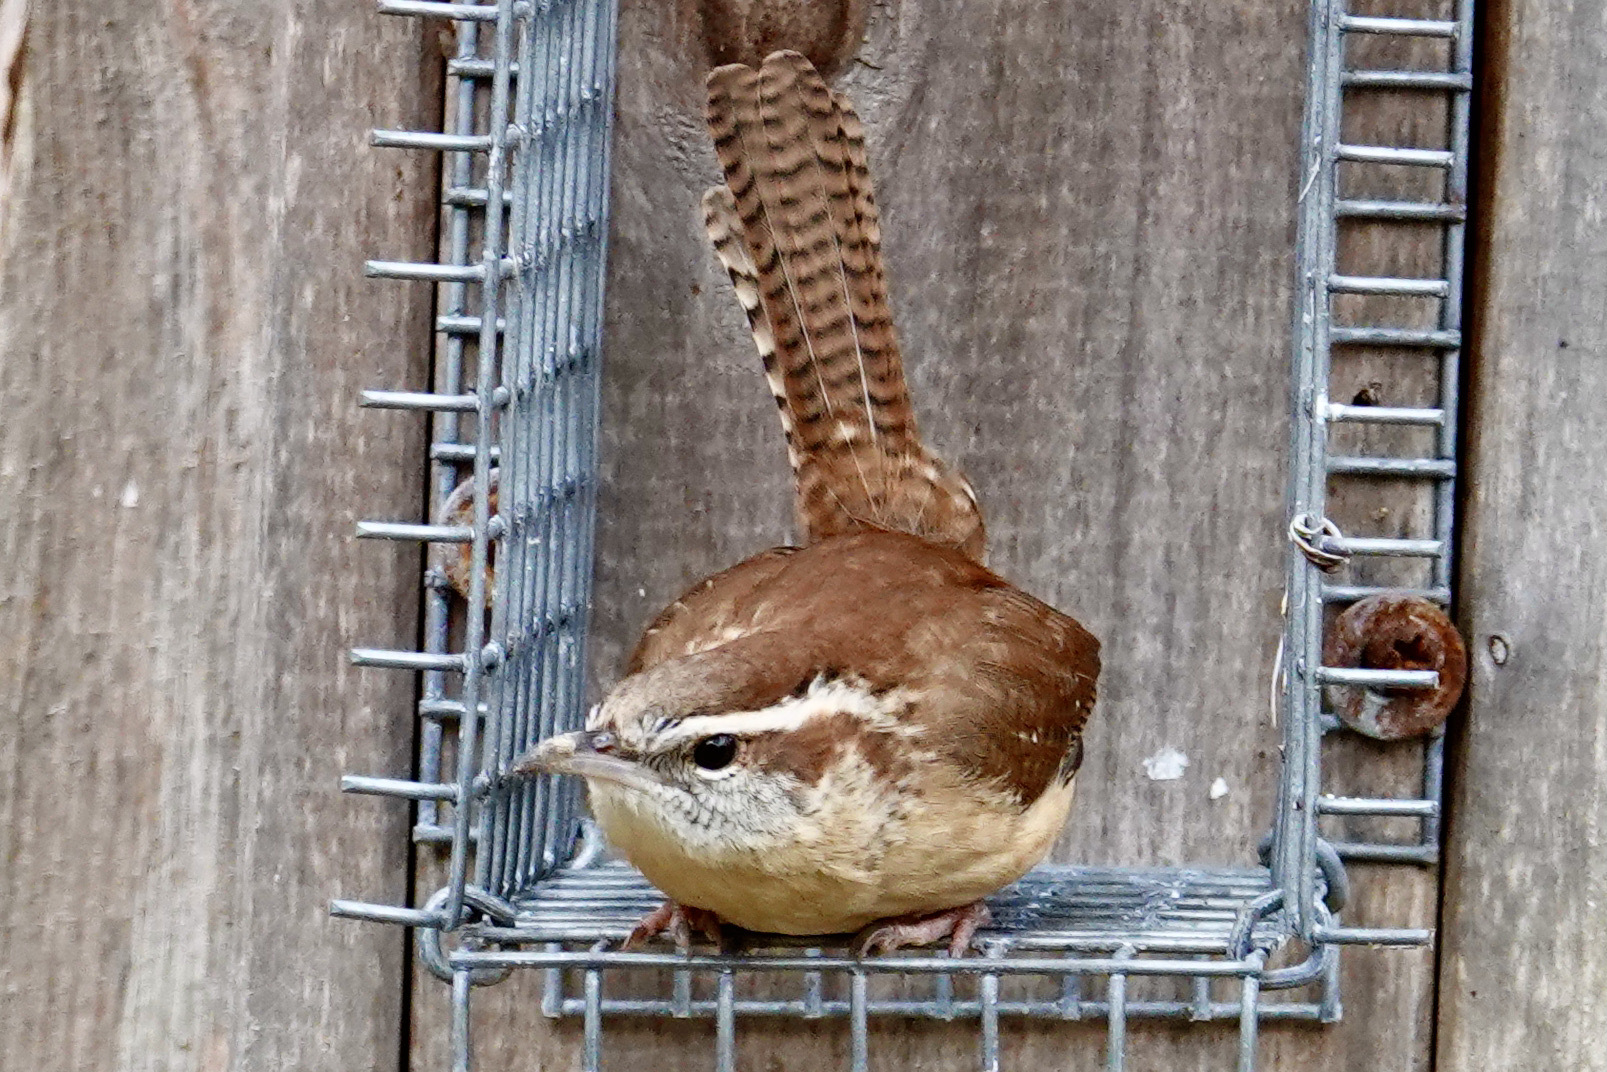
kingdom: Animalia
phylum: Chordata
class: Aves
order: Passeriformes
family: Troglodytidae
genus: Thryothorus
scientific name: Thryothorus ludovicianus
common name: Carolina wren
